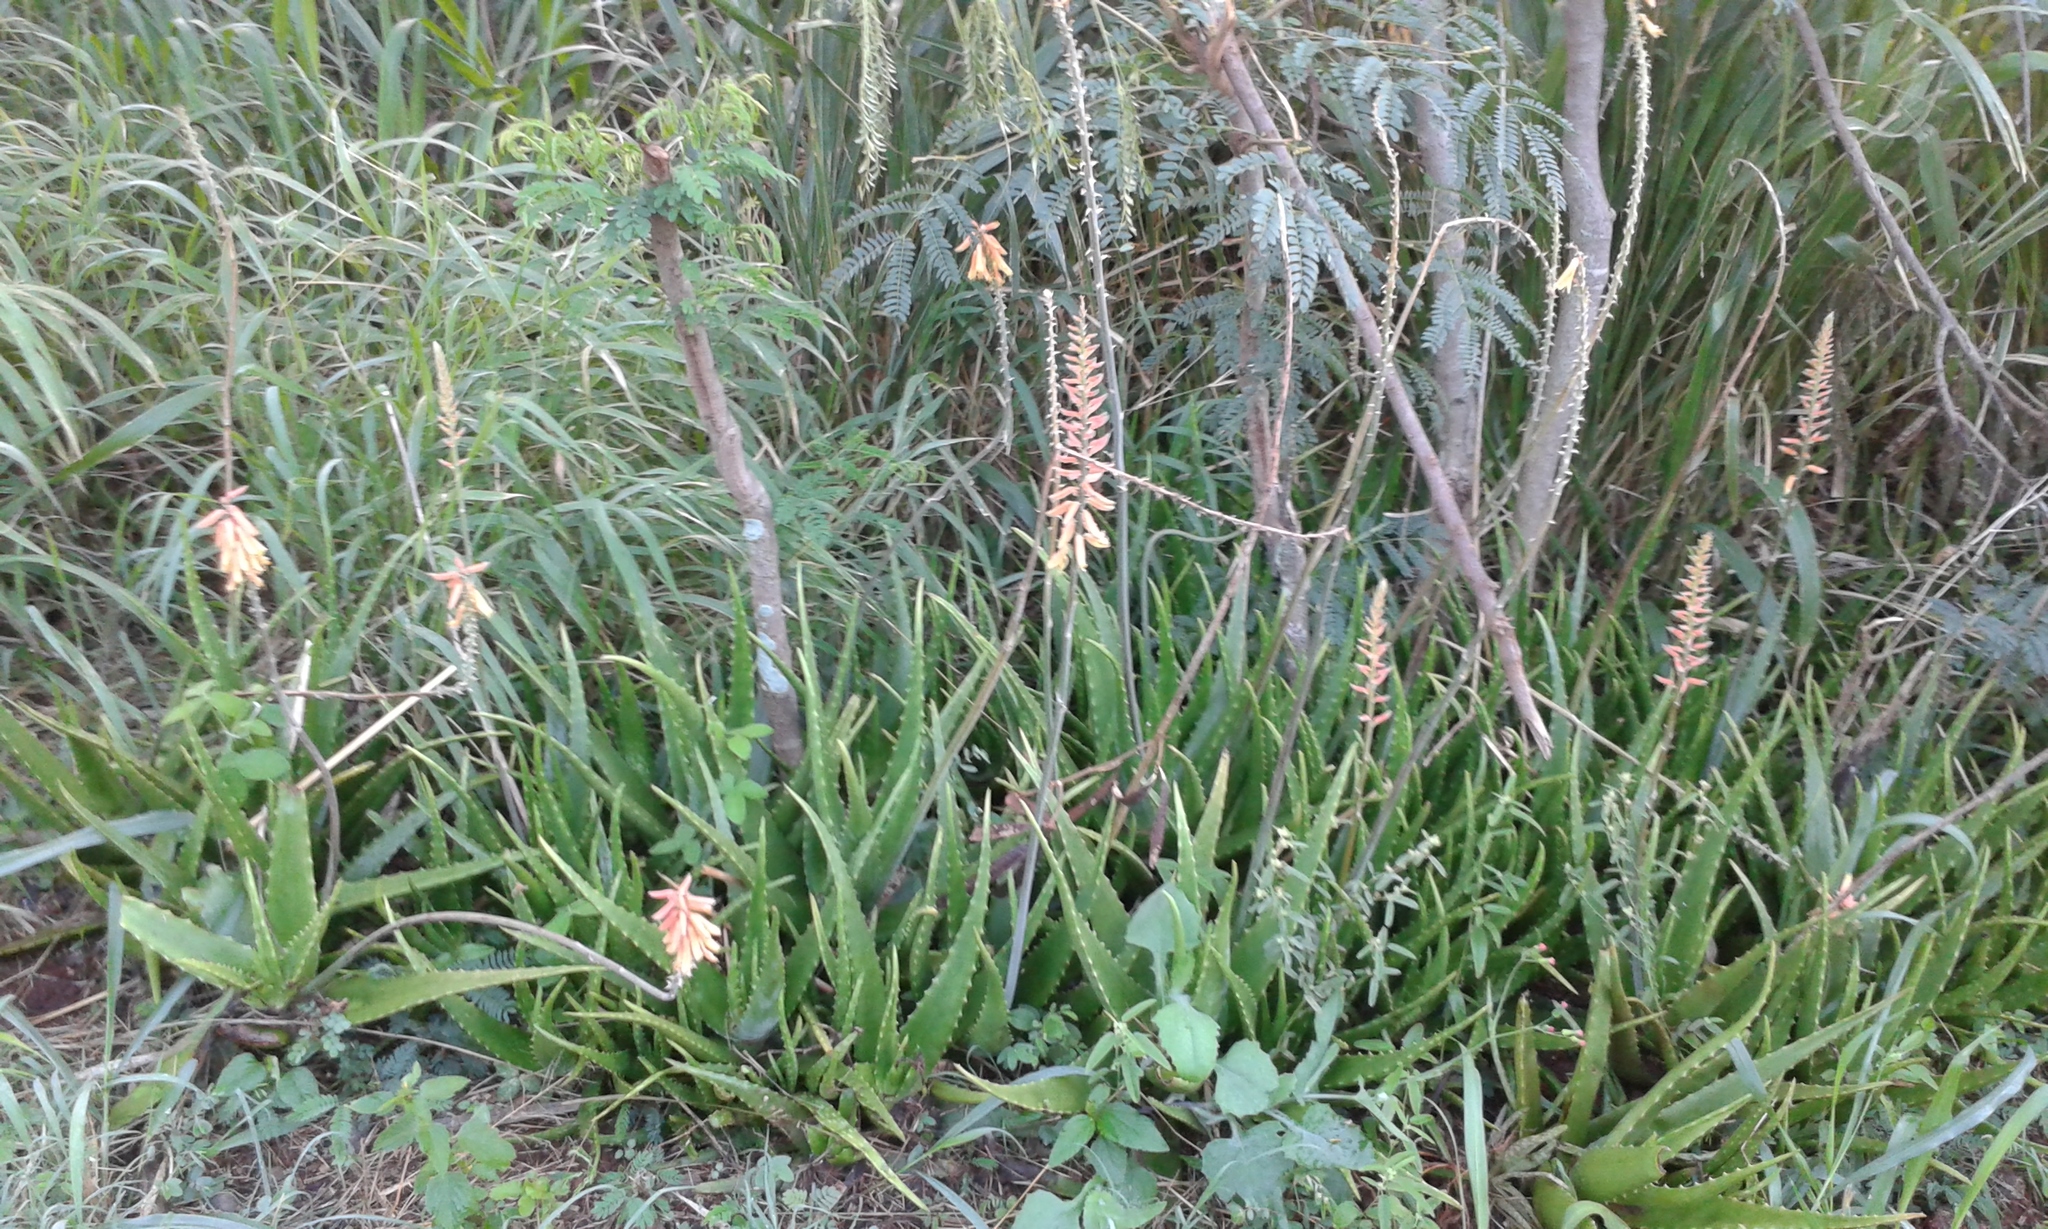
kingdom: Plantae
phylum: Tracheophyta
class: Liliopsida
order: Asparagales
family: Asphodelaceae
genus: Aloe
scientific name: Aloe vera
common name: Barbados aloe
